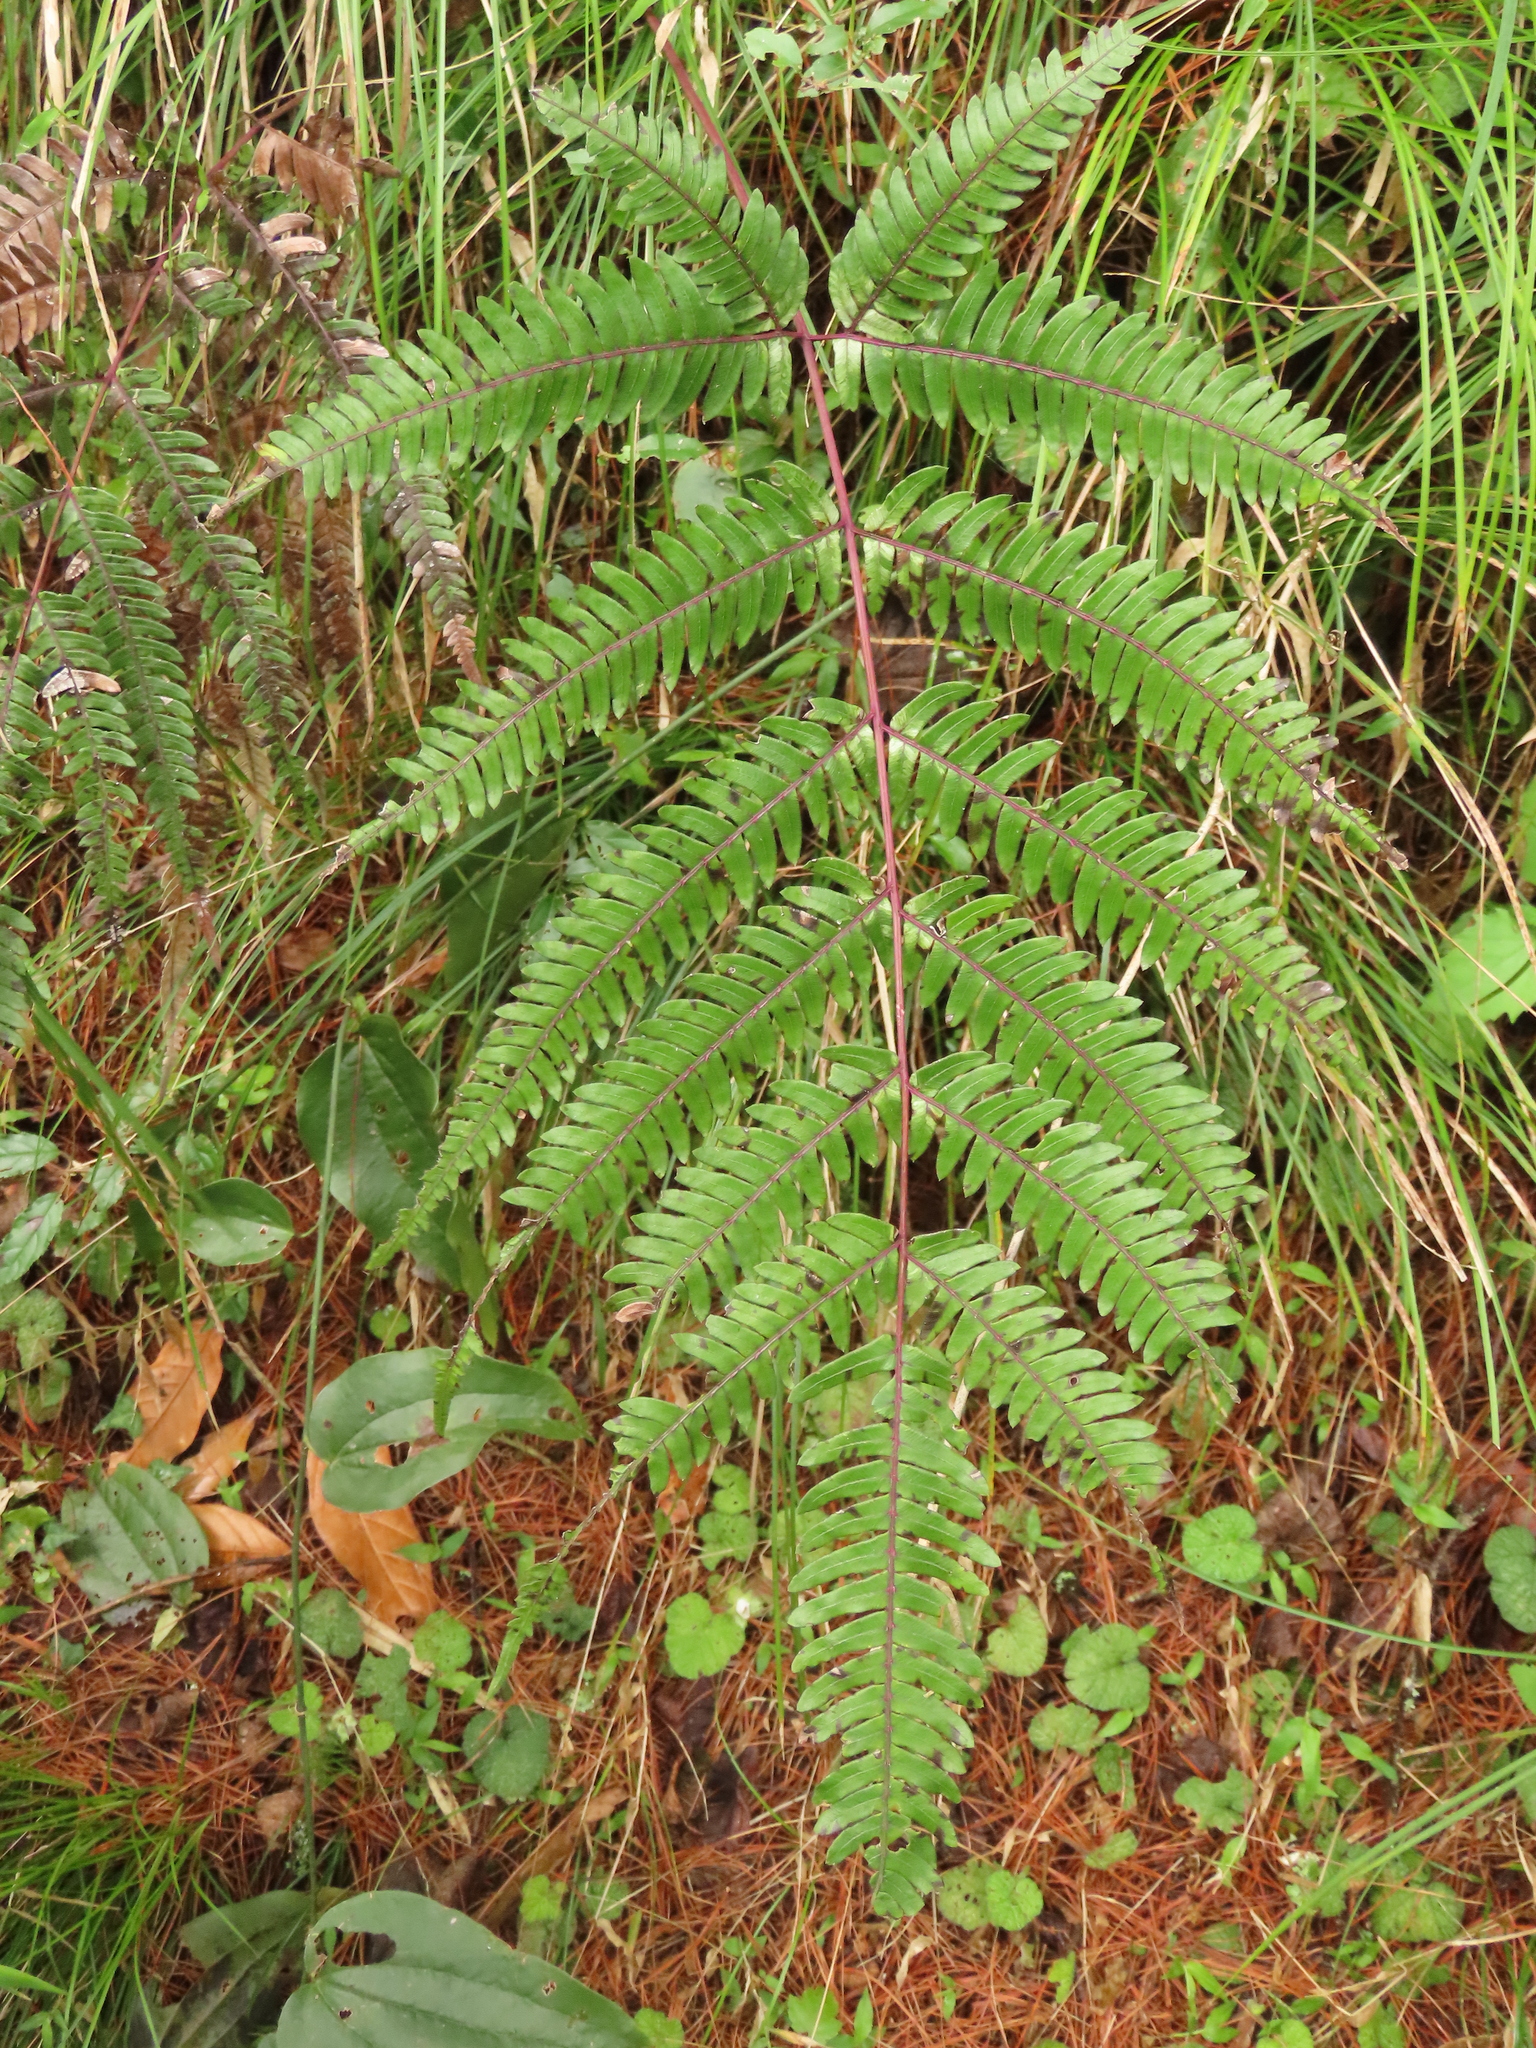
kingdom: Plantae
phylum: Tracheophyta
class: Polypodiopsida
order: Polypodiales
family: Pteridaceae
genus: Pteris
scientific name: Pteris normalis
